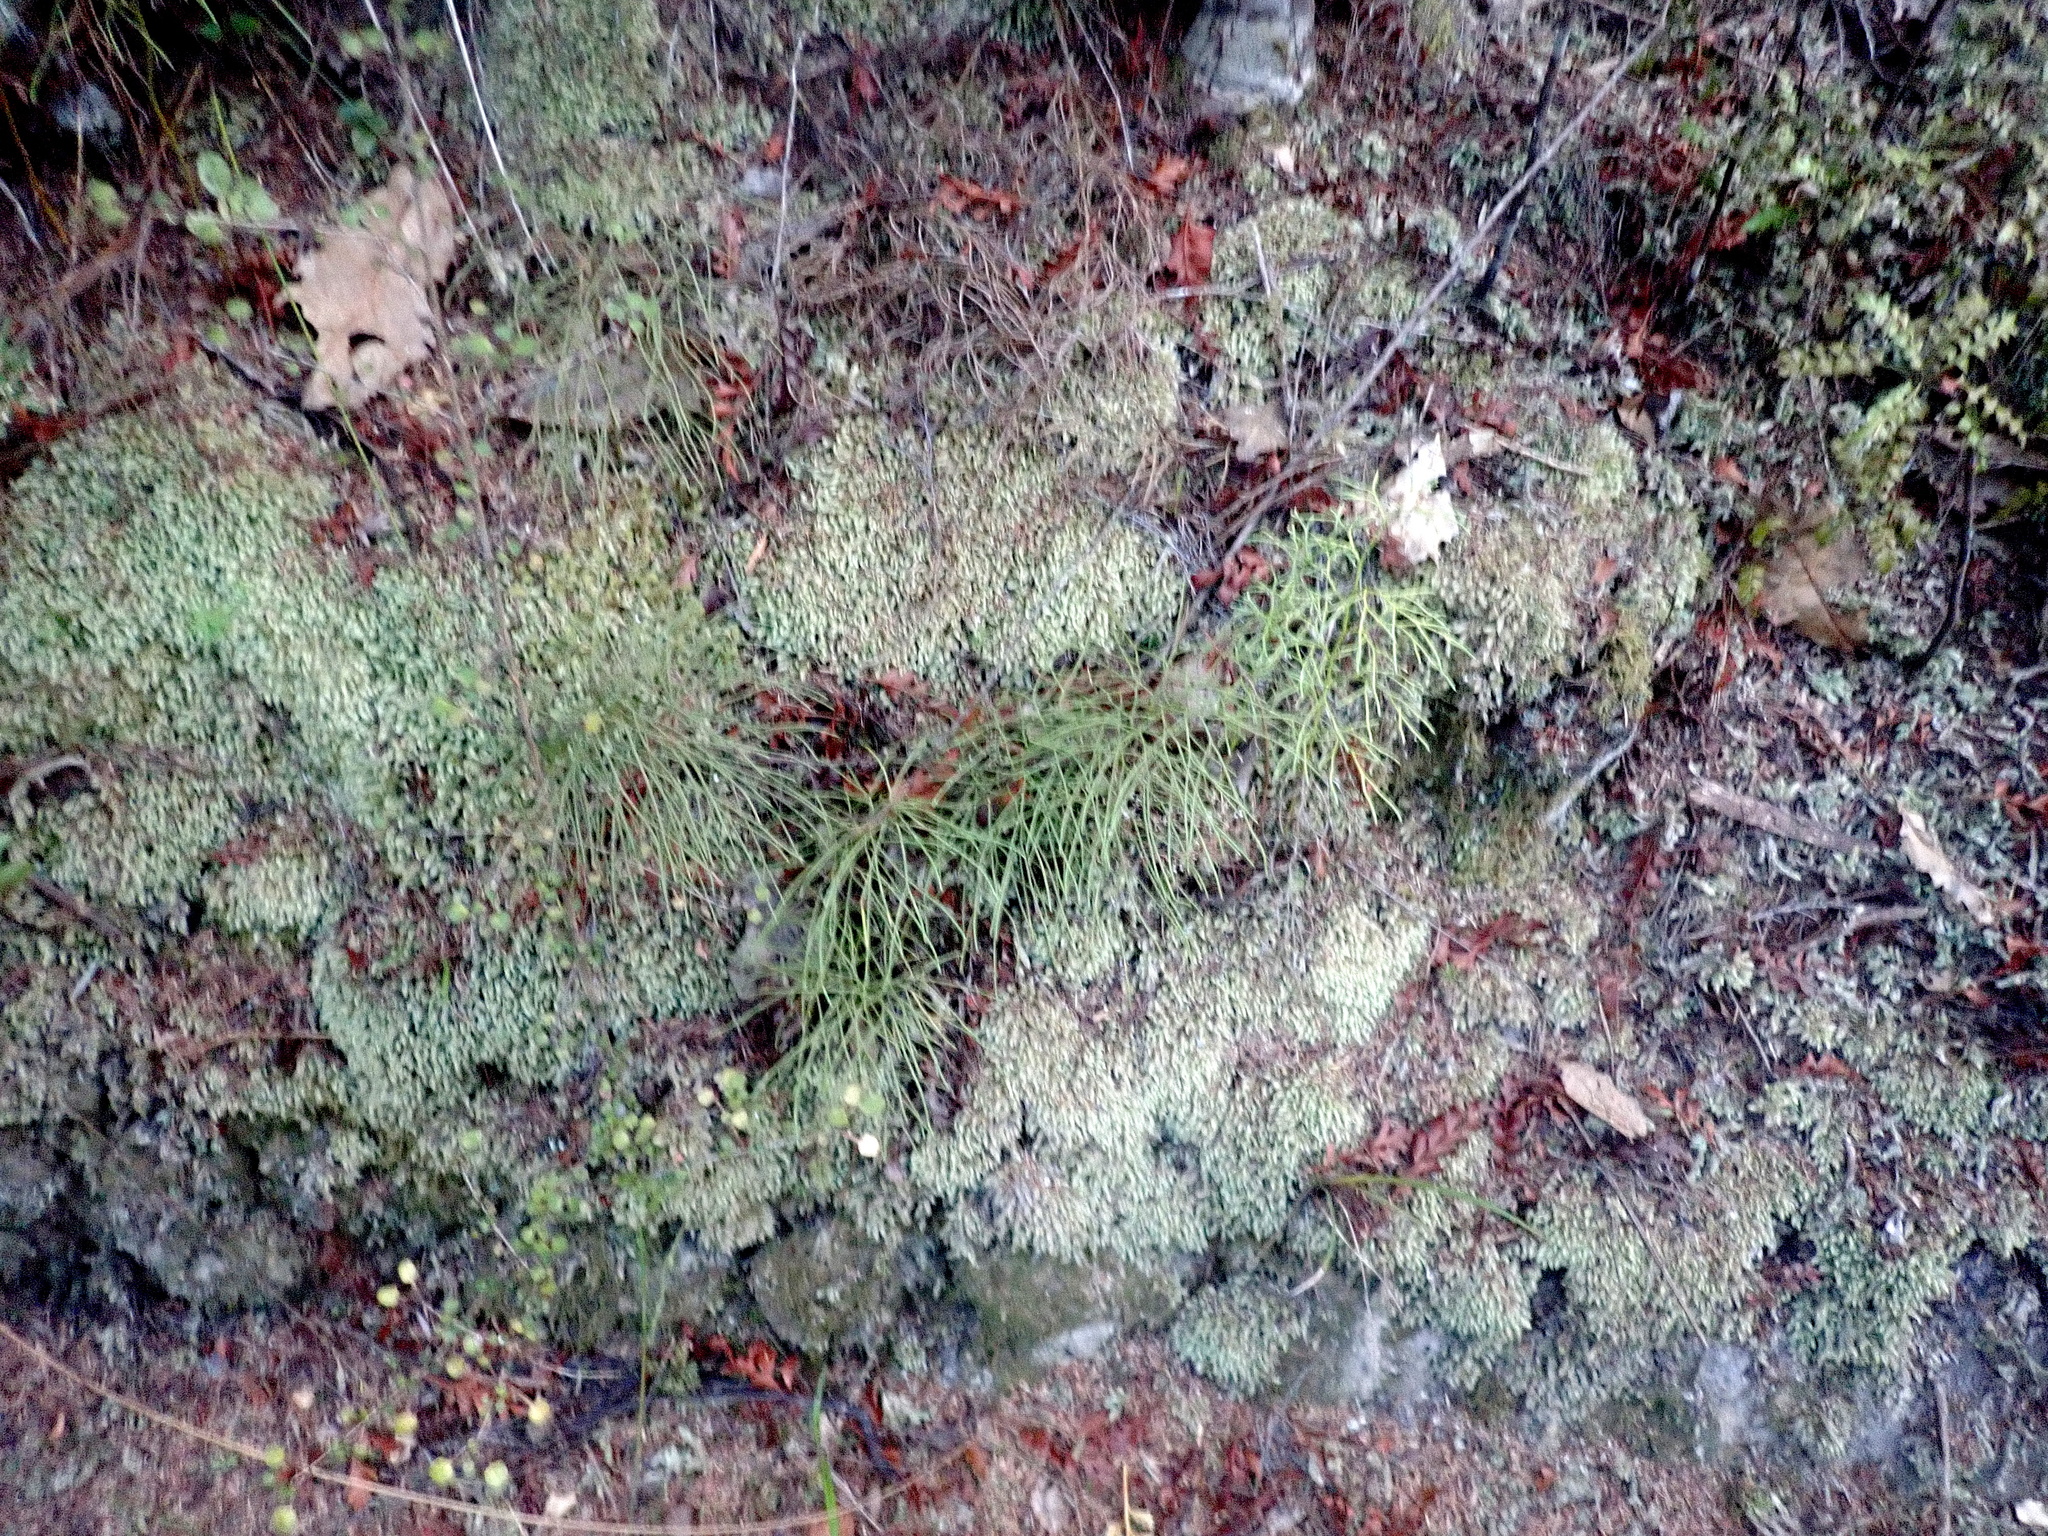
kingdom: Plantae
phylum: Bryophyta
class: Bryopsida
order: Dicranales
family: Leucobryaceae
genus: Leucobryum
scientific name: Leucobryum javense
